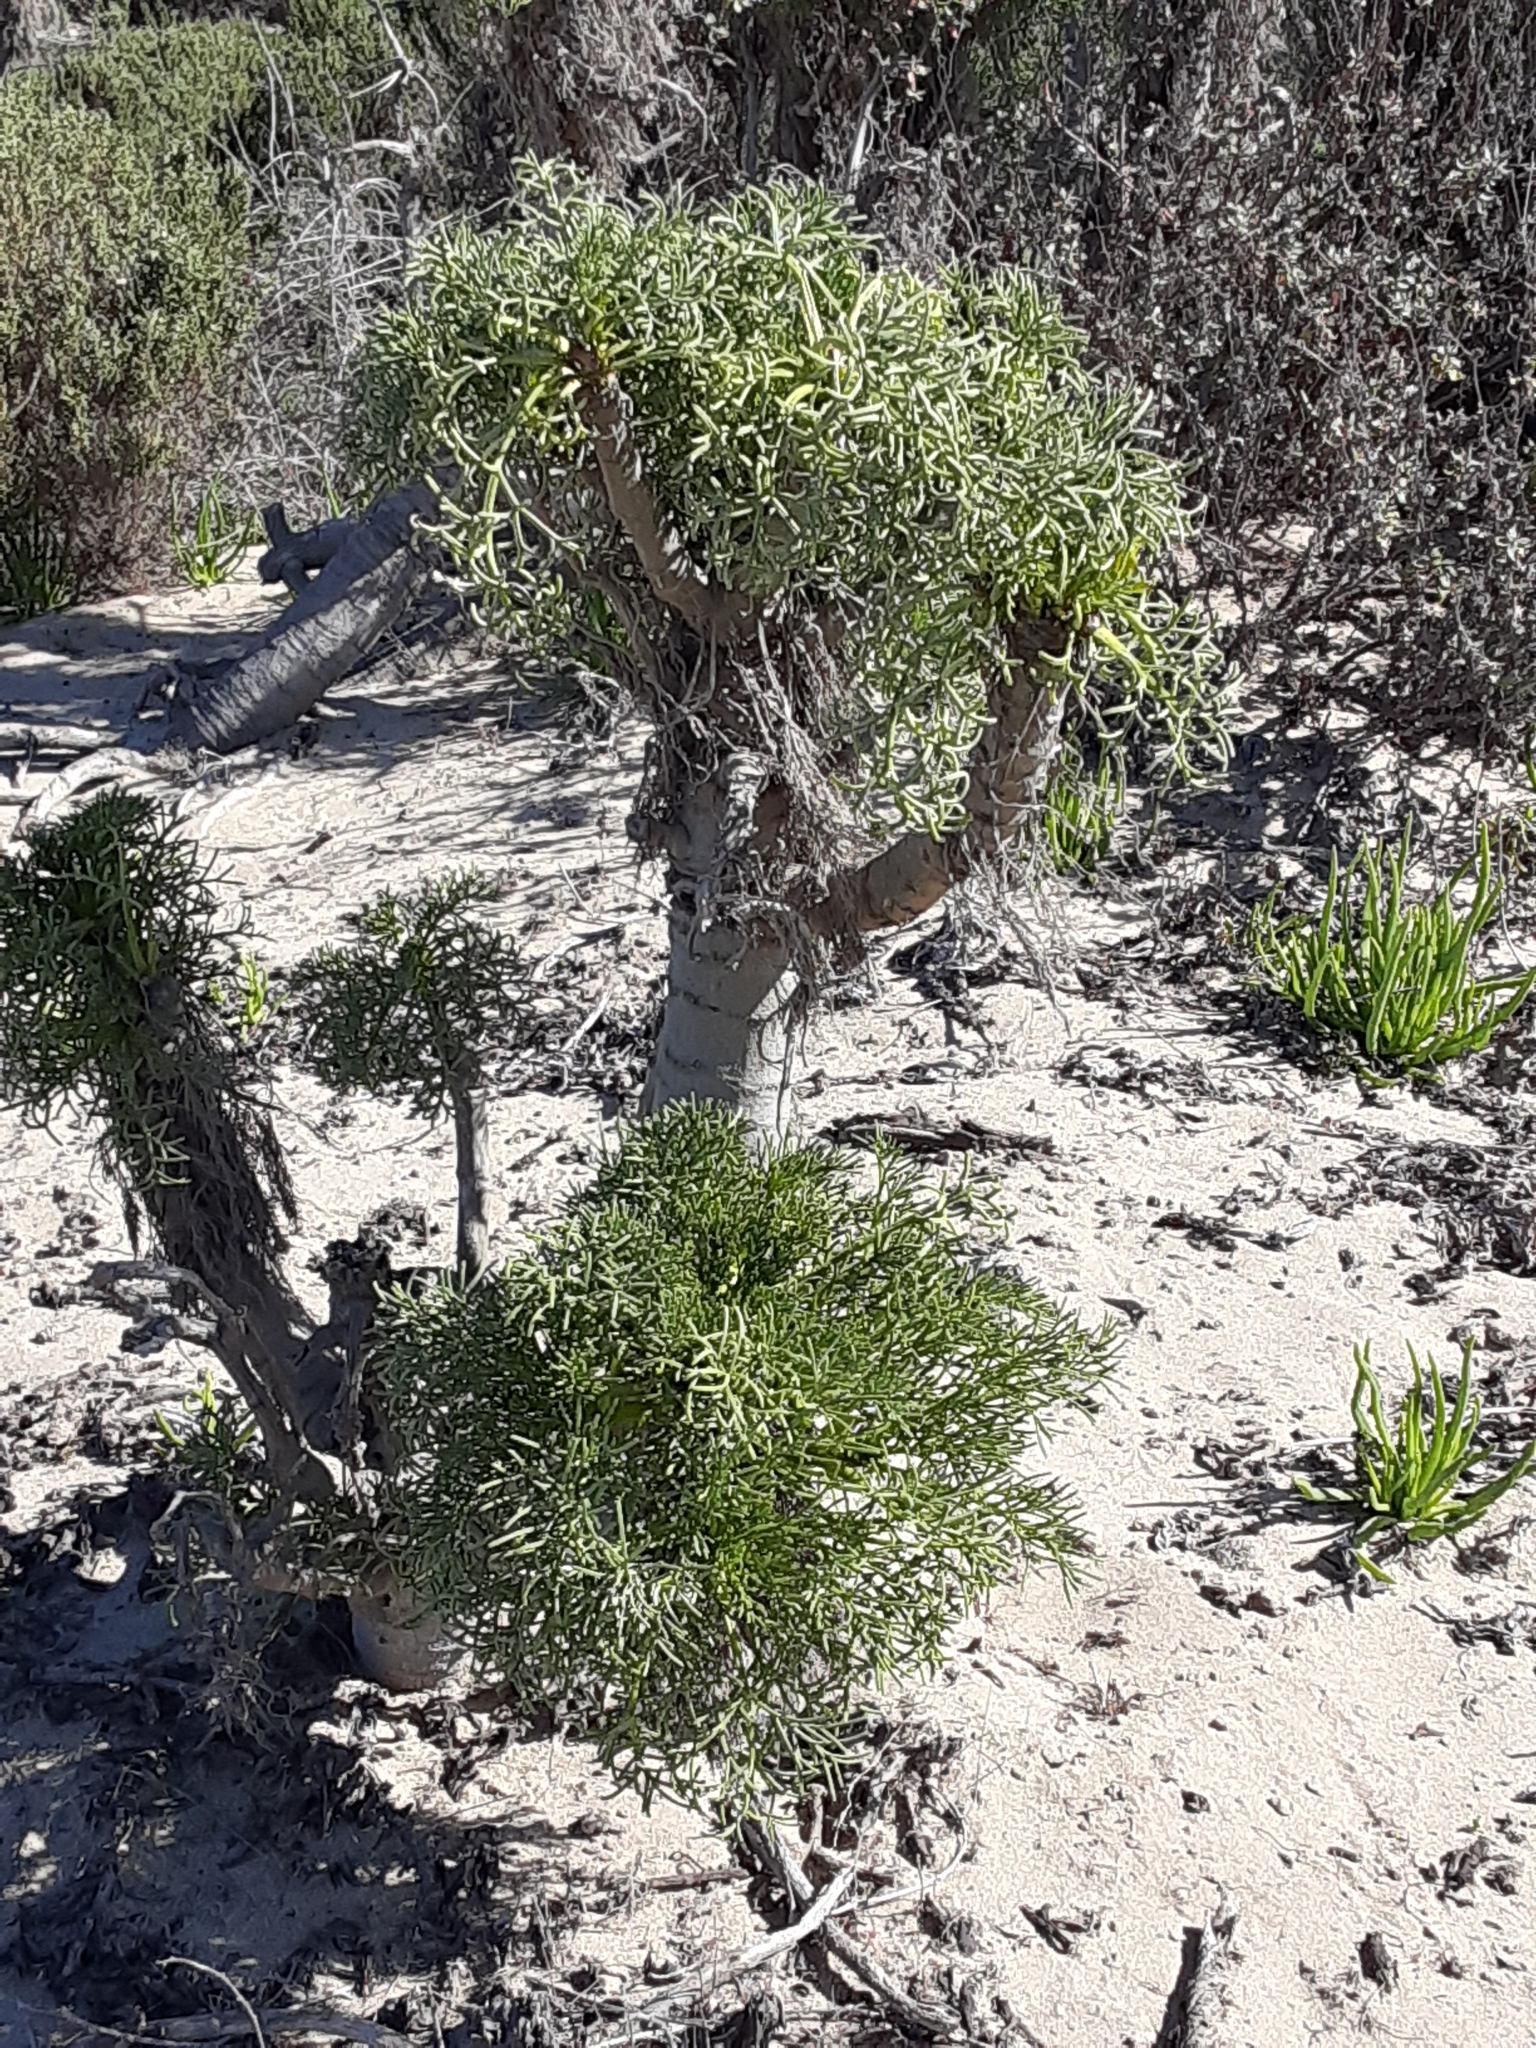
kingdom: Plantae
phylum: Tracheophyta
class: Magnoliopsida
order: Asterales
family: Asteraceae
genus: Coreopsis
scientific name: Coreopsis gigantea
